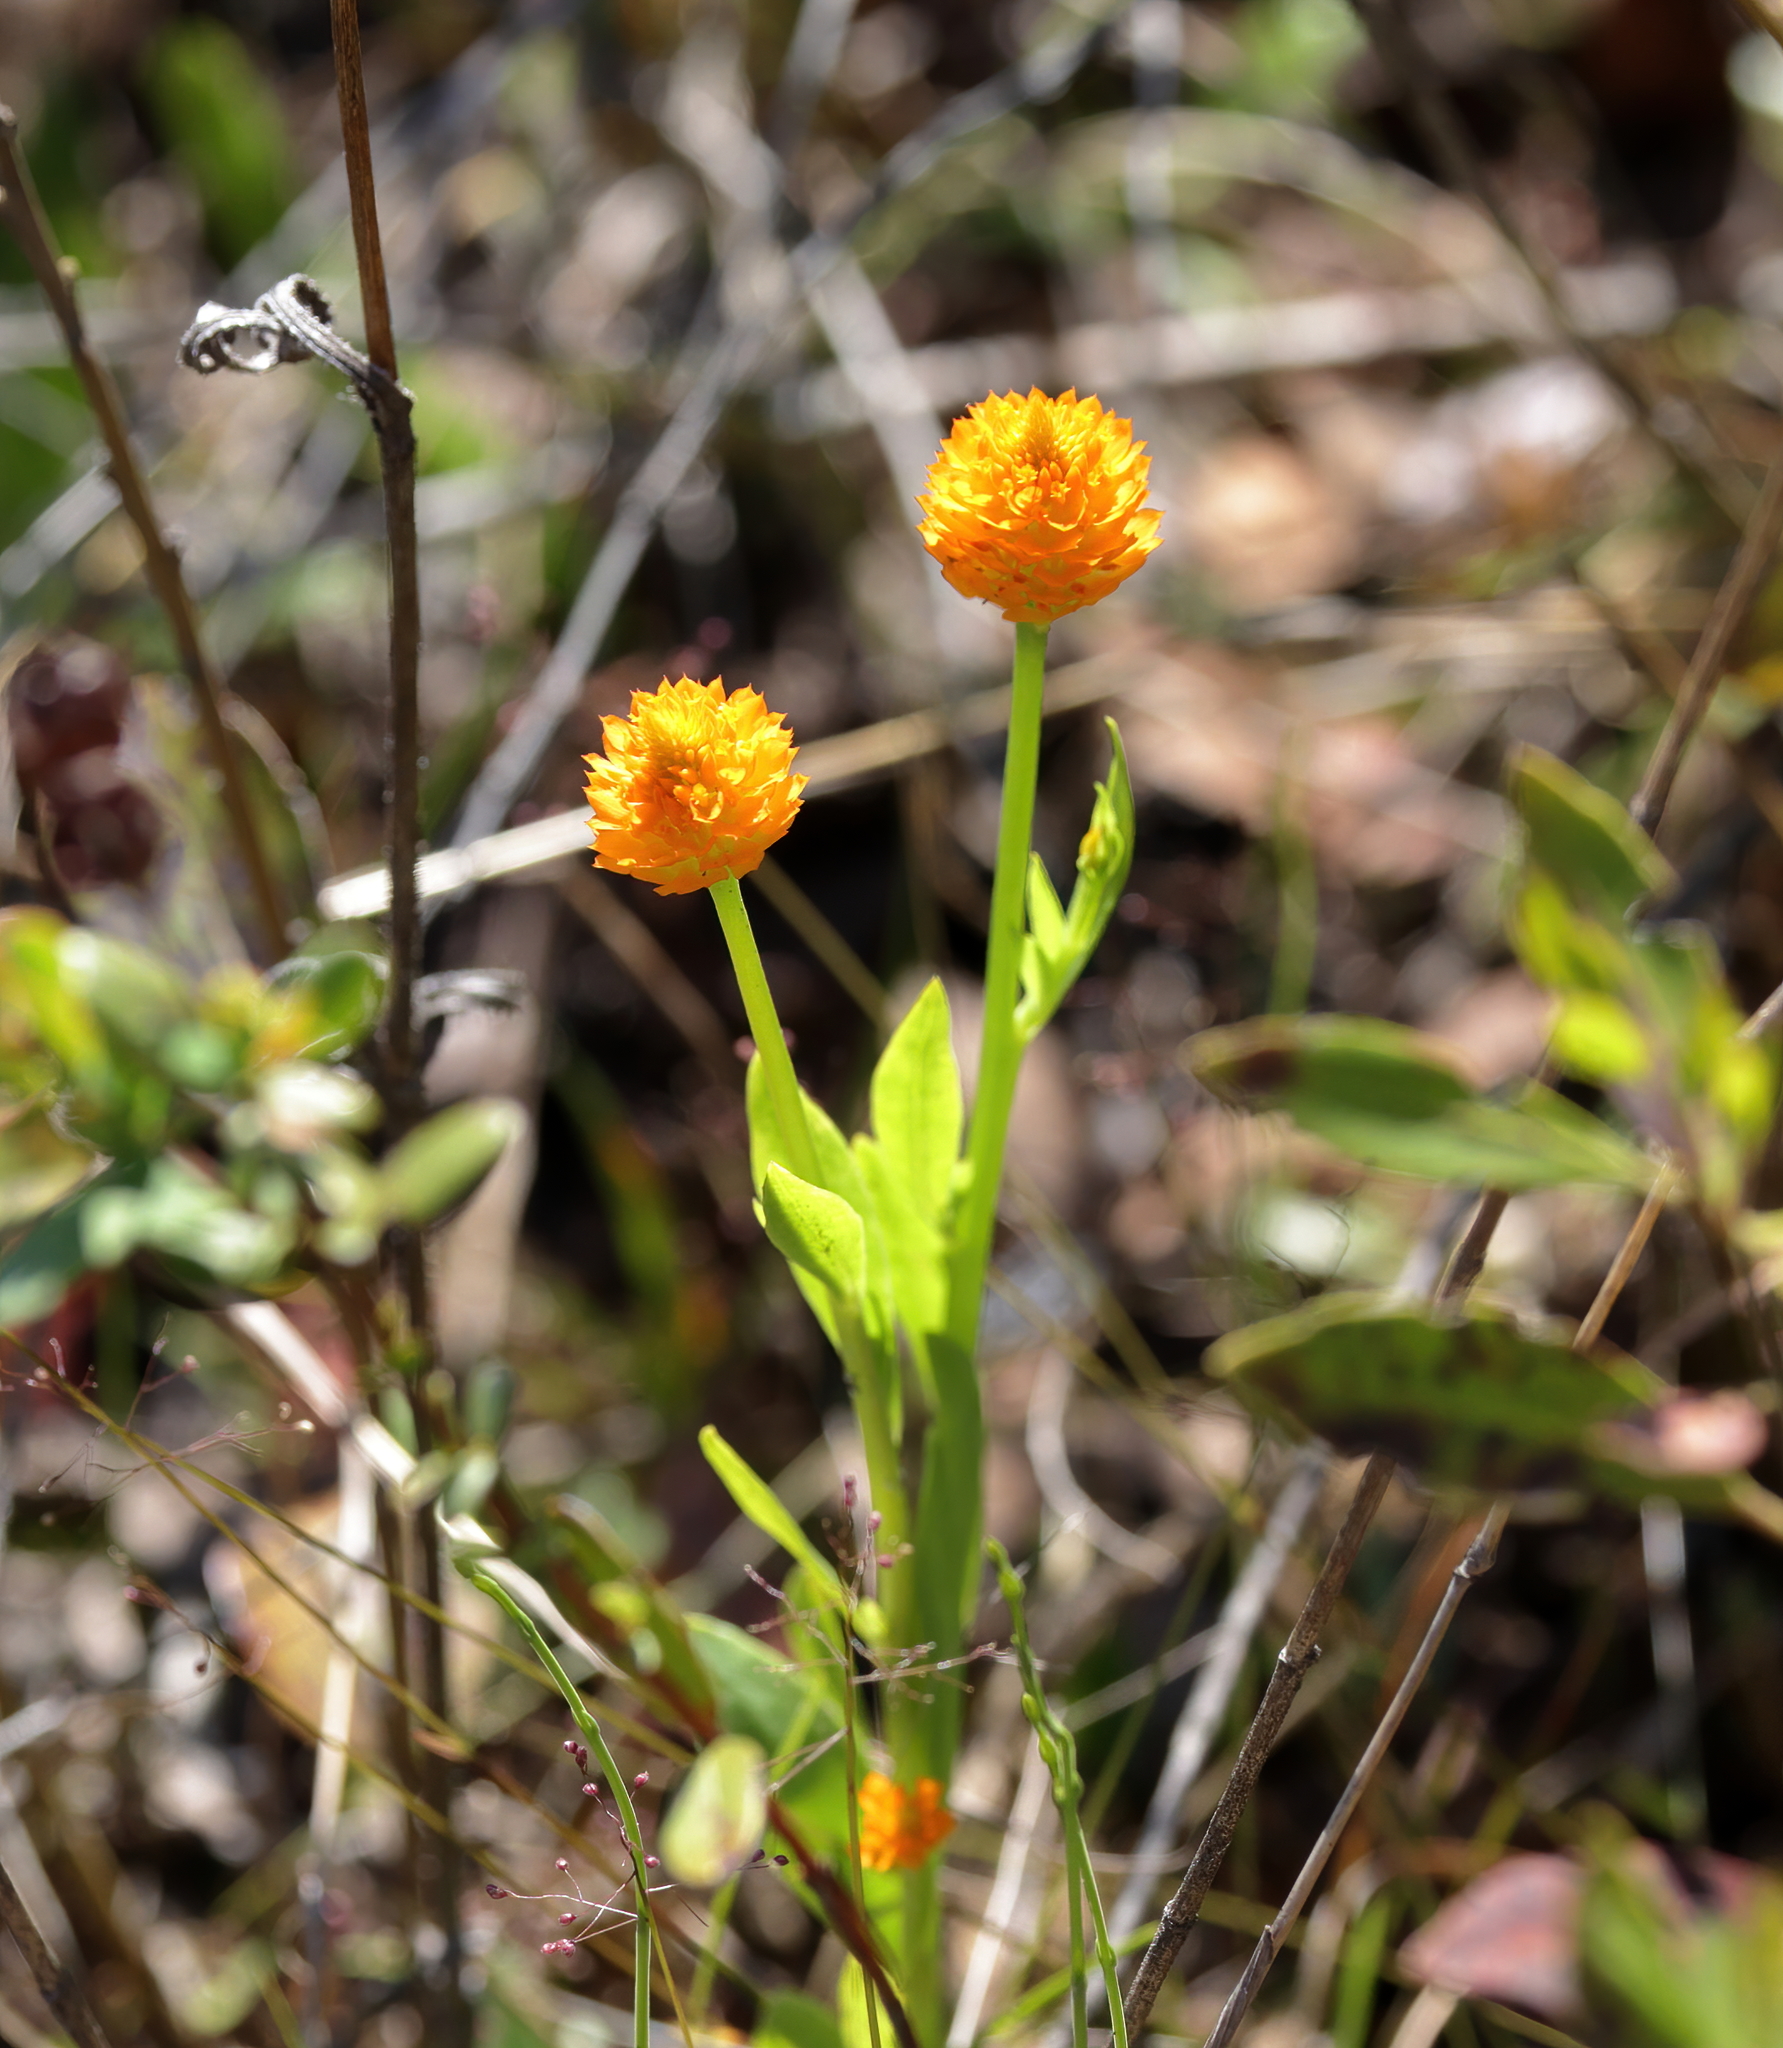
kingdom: Plantae
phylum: Tracheophyta
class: Magnoliopsida
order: Fabales
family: Polygalaceae
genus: Polygala
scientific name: Polygala lutea
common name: Orange milkwort
